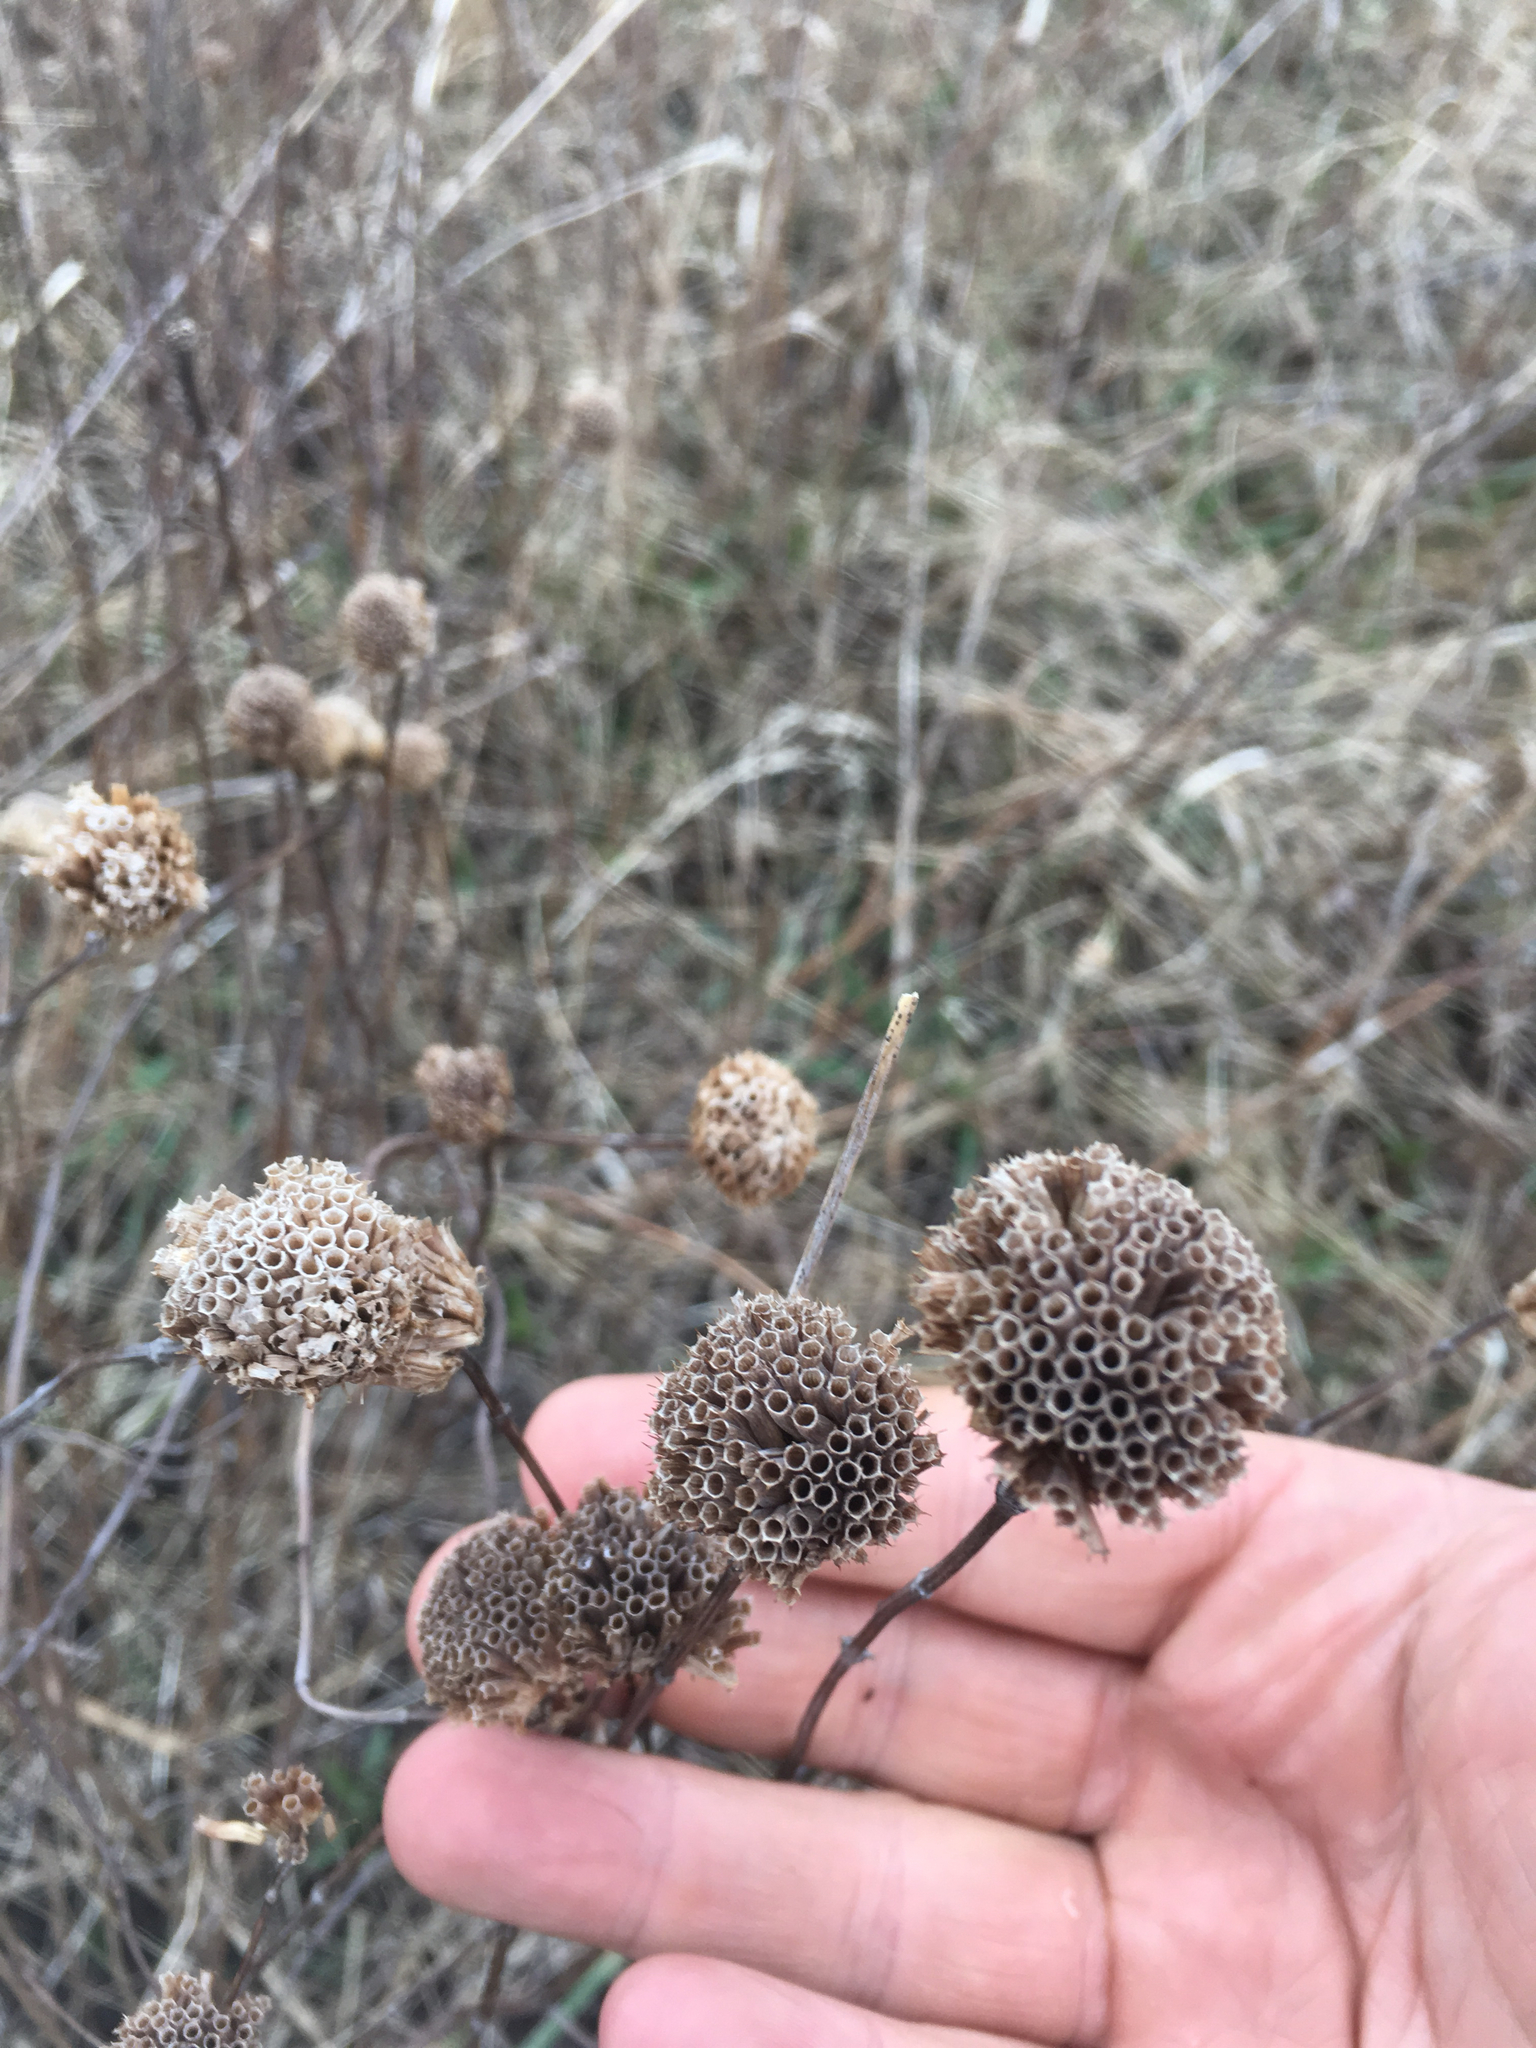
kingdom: Plantae
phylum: Tracheophyta
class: Magnoliopsida
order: Lamiales
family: Lamiaceae
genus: Monarda
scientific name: Monarda fistulosa
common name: Purple beebalm
